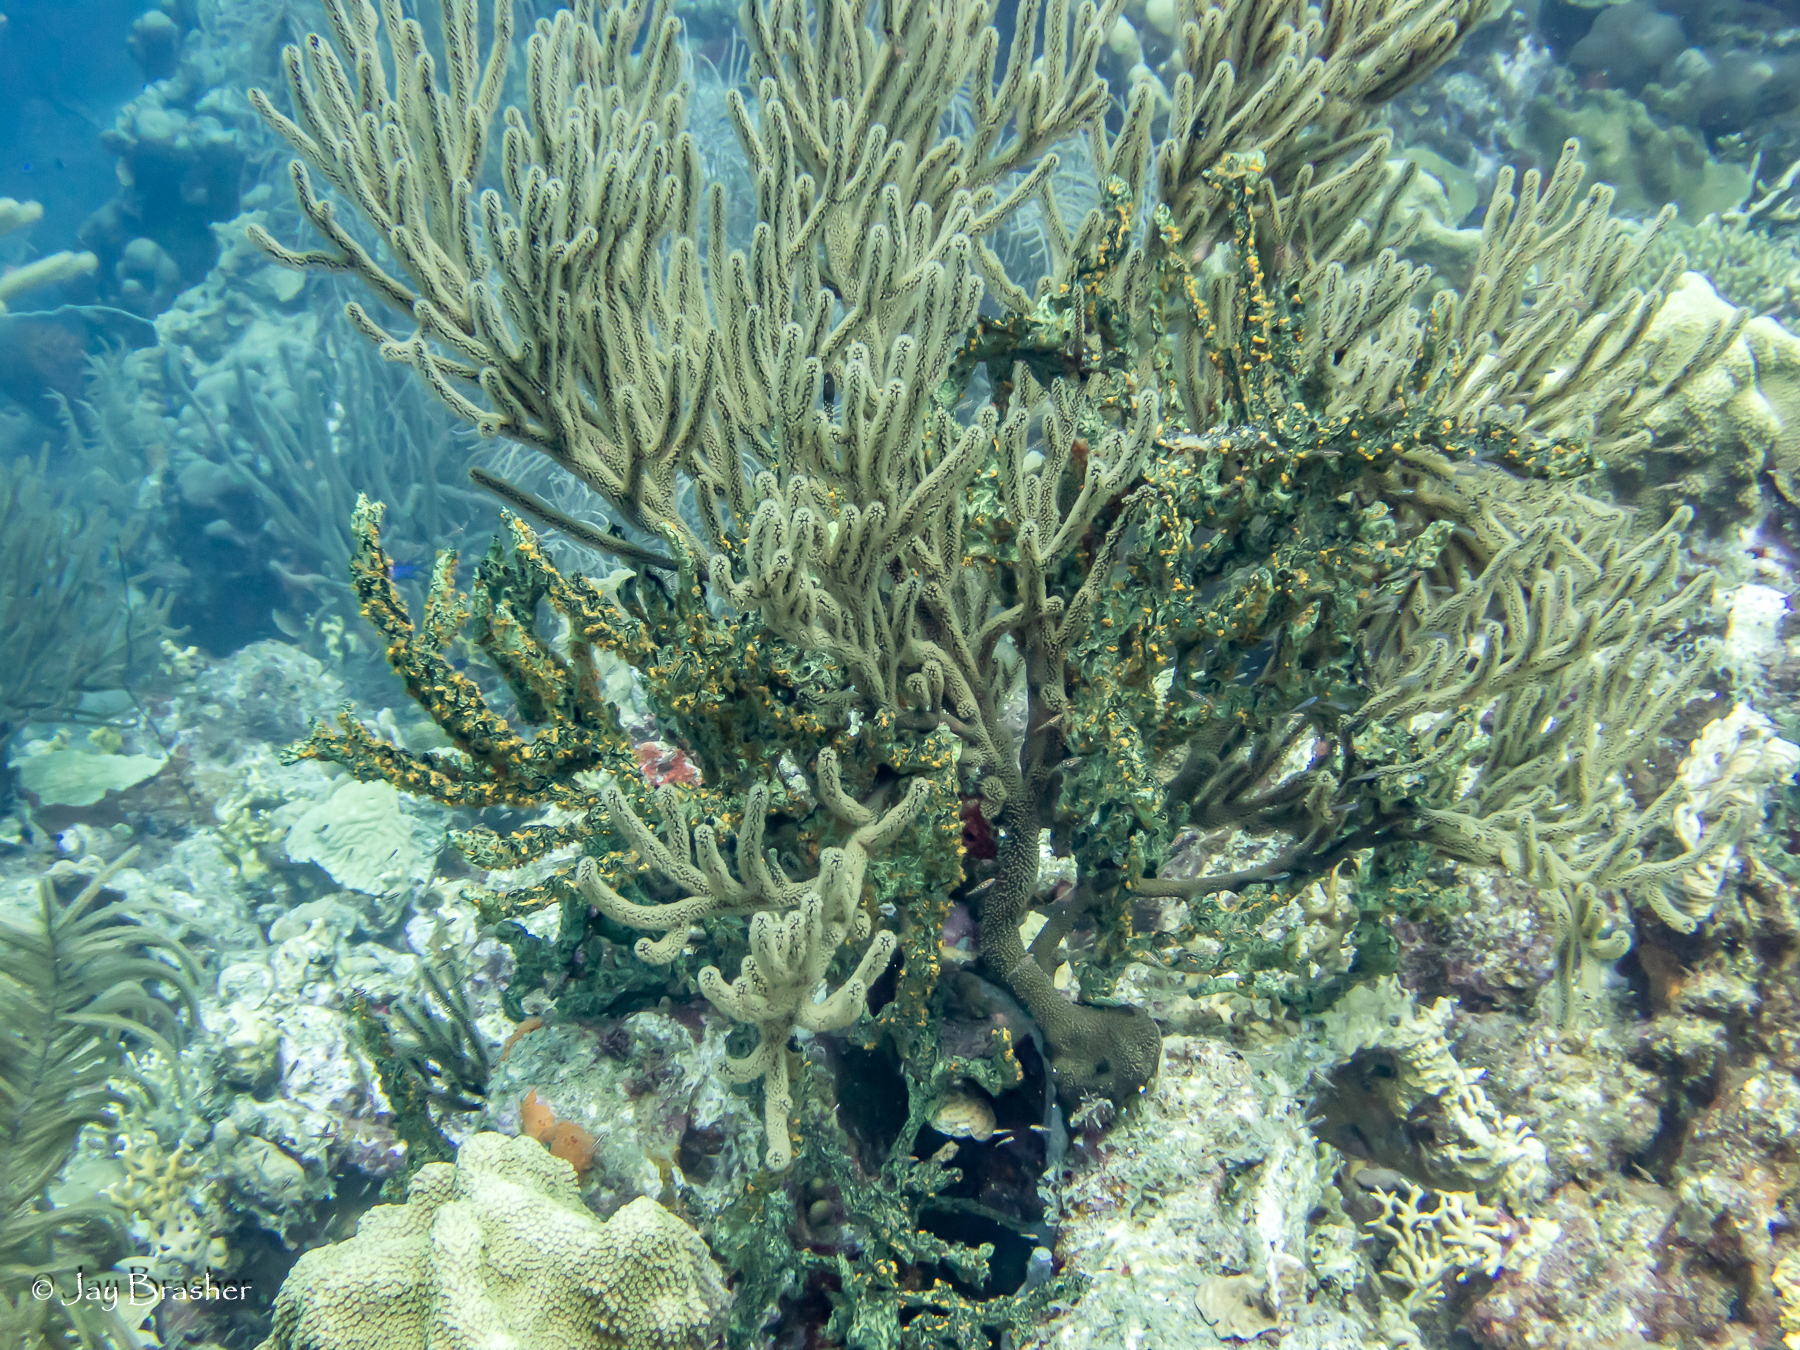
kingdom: Animalia
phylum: Cnidaria
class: Anthozoa
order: Malacalcyonacea
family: Plexauridae
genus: Plexaura
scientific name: Plexaura homomalla
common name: Black sea rod
